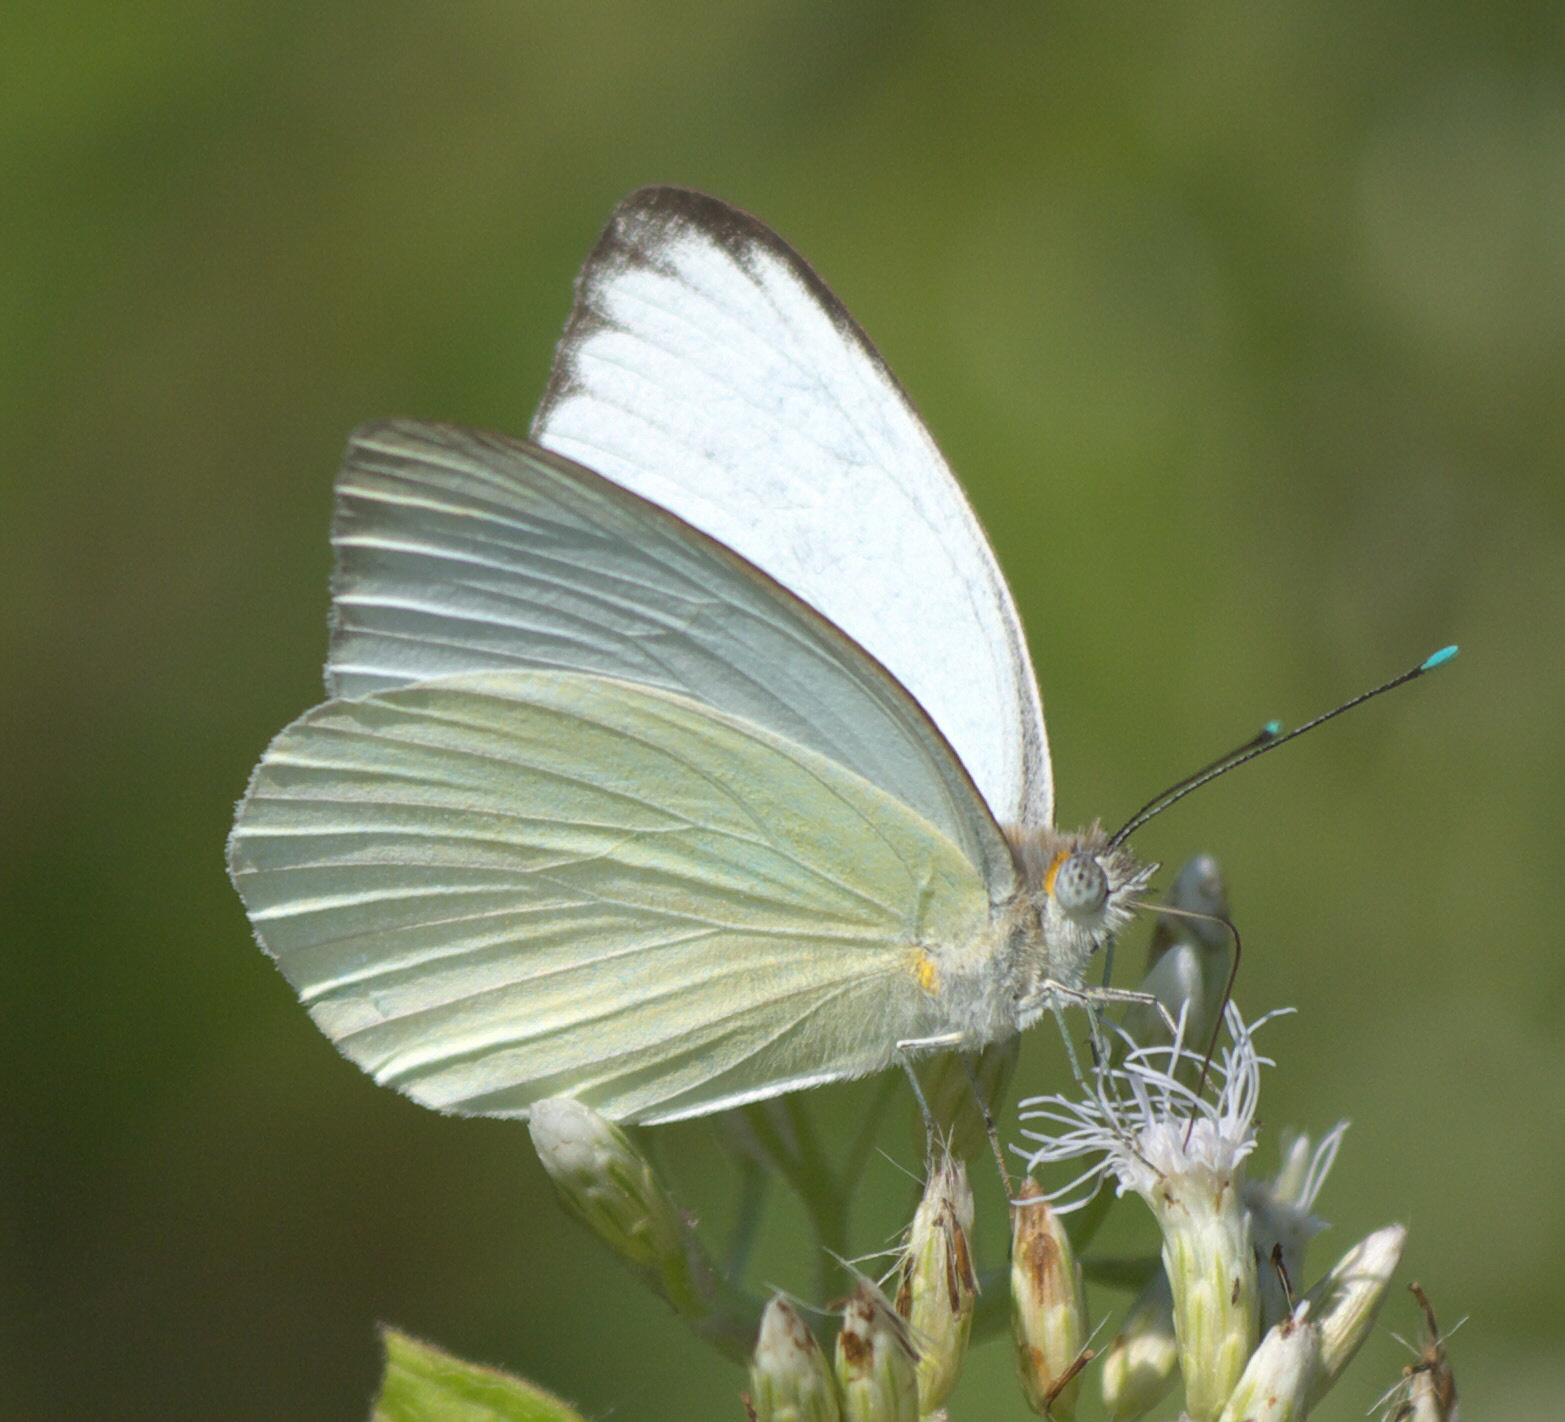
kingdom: Animalia
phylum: Arthropoda
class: Insecta
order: Lepidoptera
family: Pieridae
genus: Ascia
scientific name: Ascia monuste
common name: Great southern white
